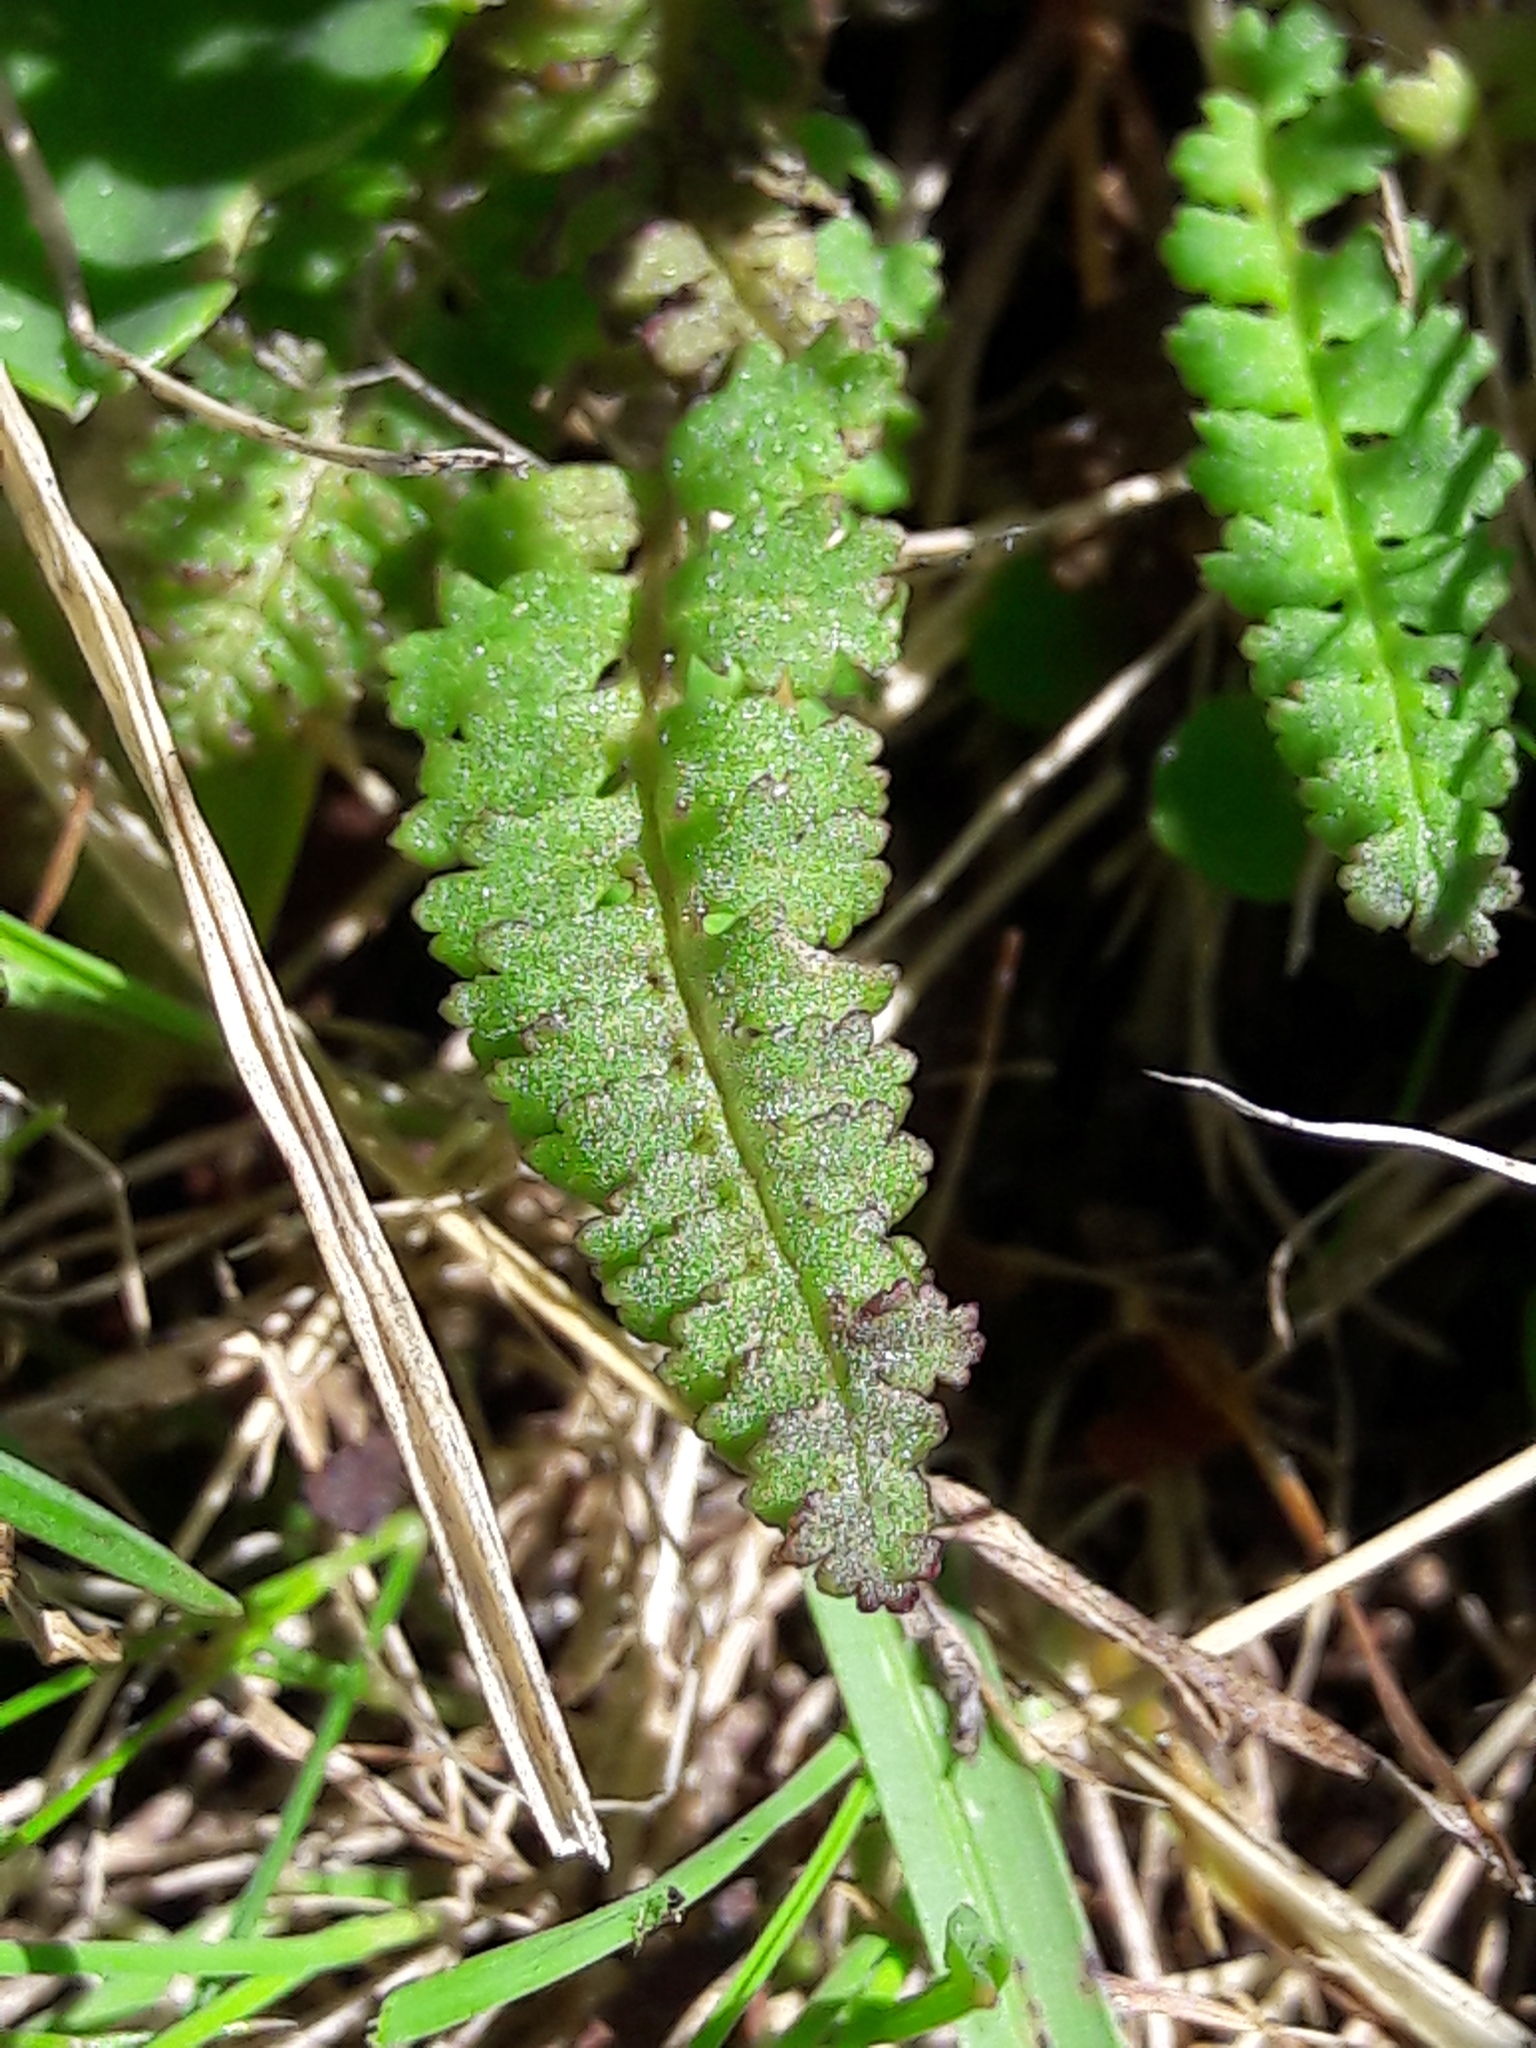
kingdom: Plantae
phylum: Tracheophyta
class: Magnoliopsida
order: Lamiales
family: Orobanchaceae
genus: Pedicularis
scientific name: Pedicularis verticillata
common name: Whorled lousewort
